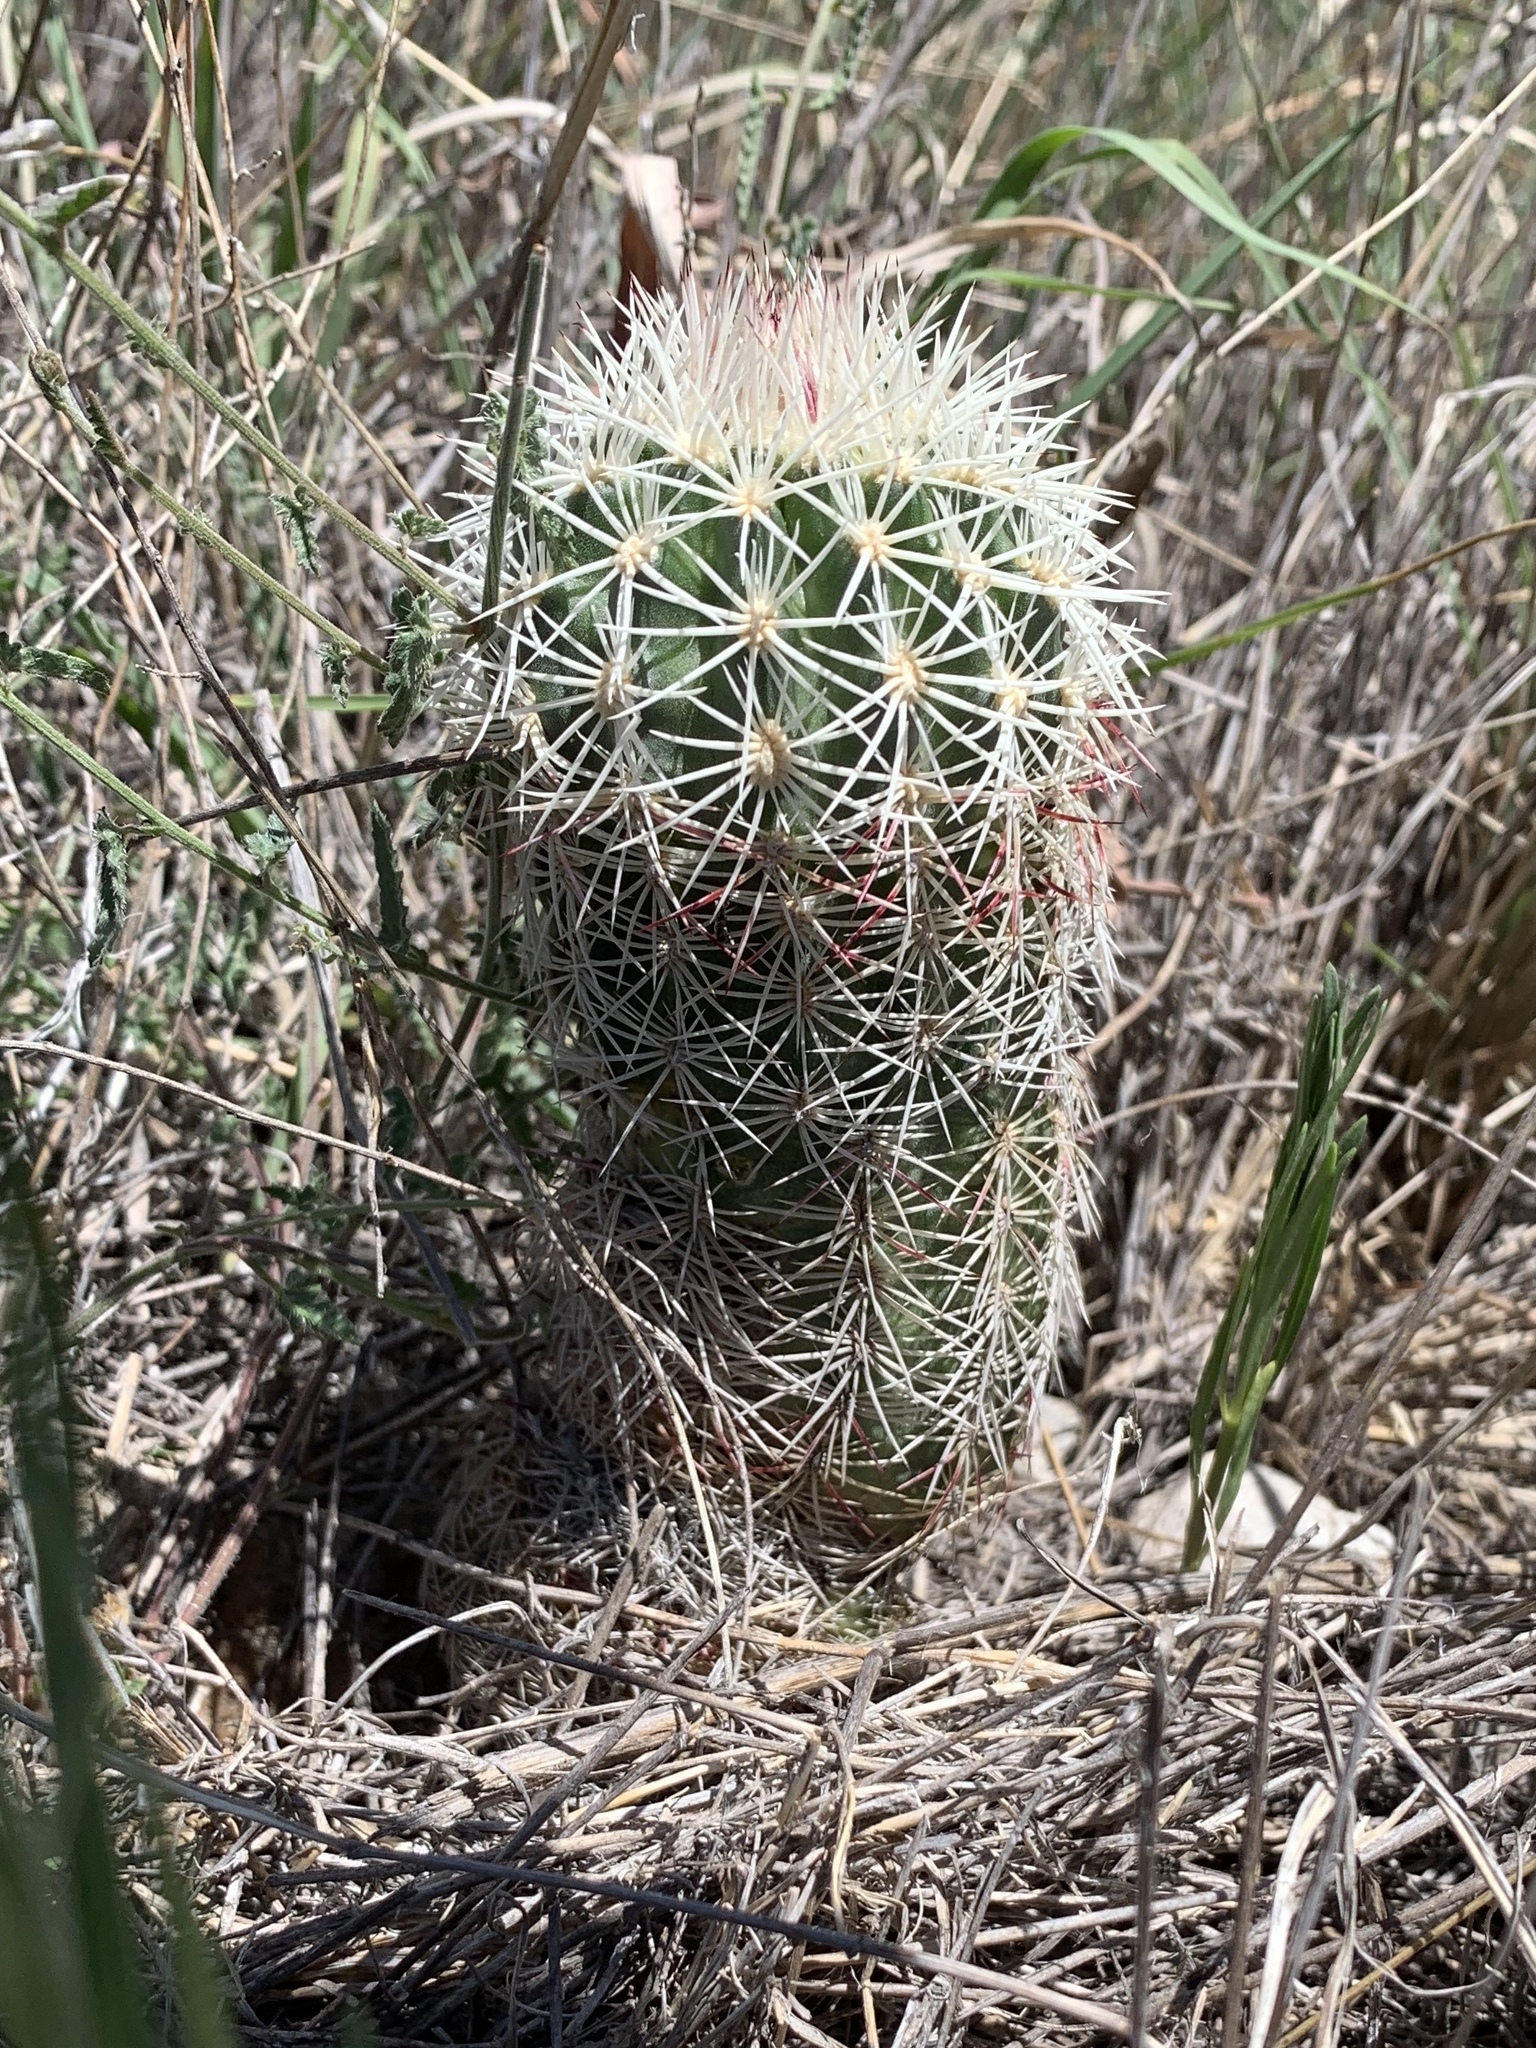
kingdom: Plantae
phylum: Tracheophyta
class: Magnoliopsida
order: Caryophyllales
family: Cactaceae
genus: Echinocereus
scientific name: Echinocereus viridiflorus
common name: Nylon hedgehog cactus
